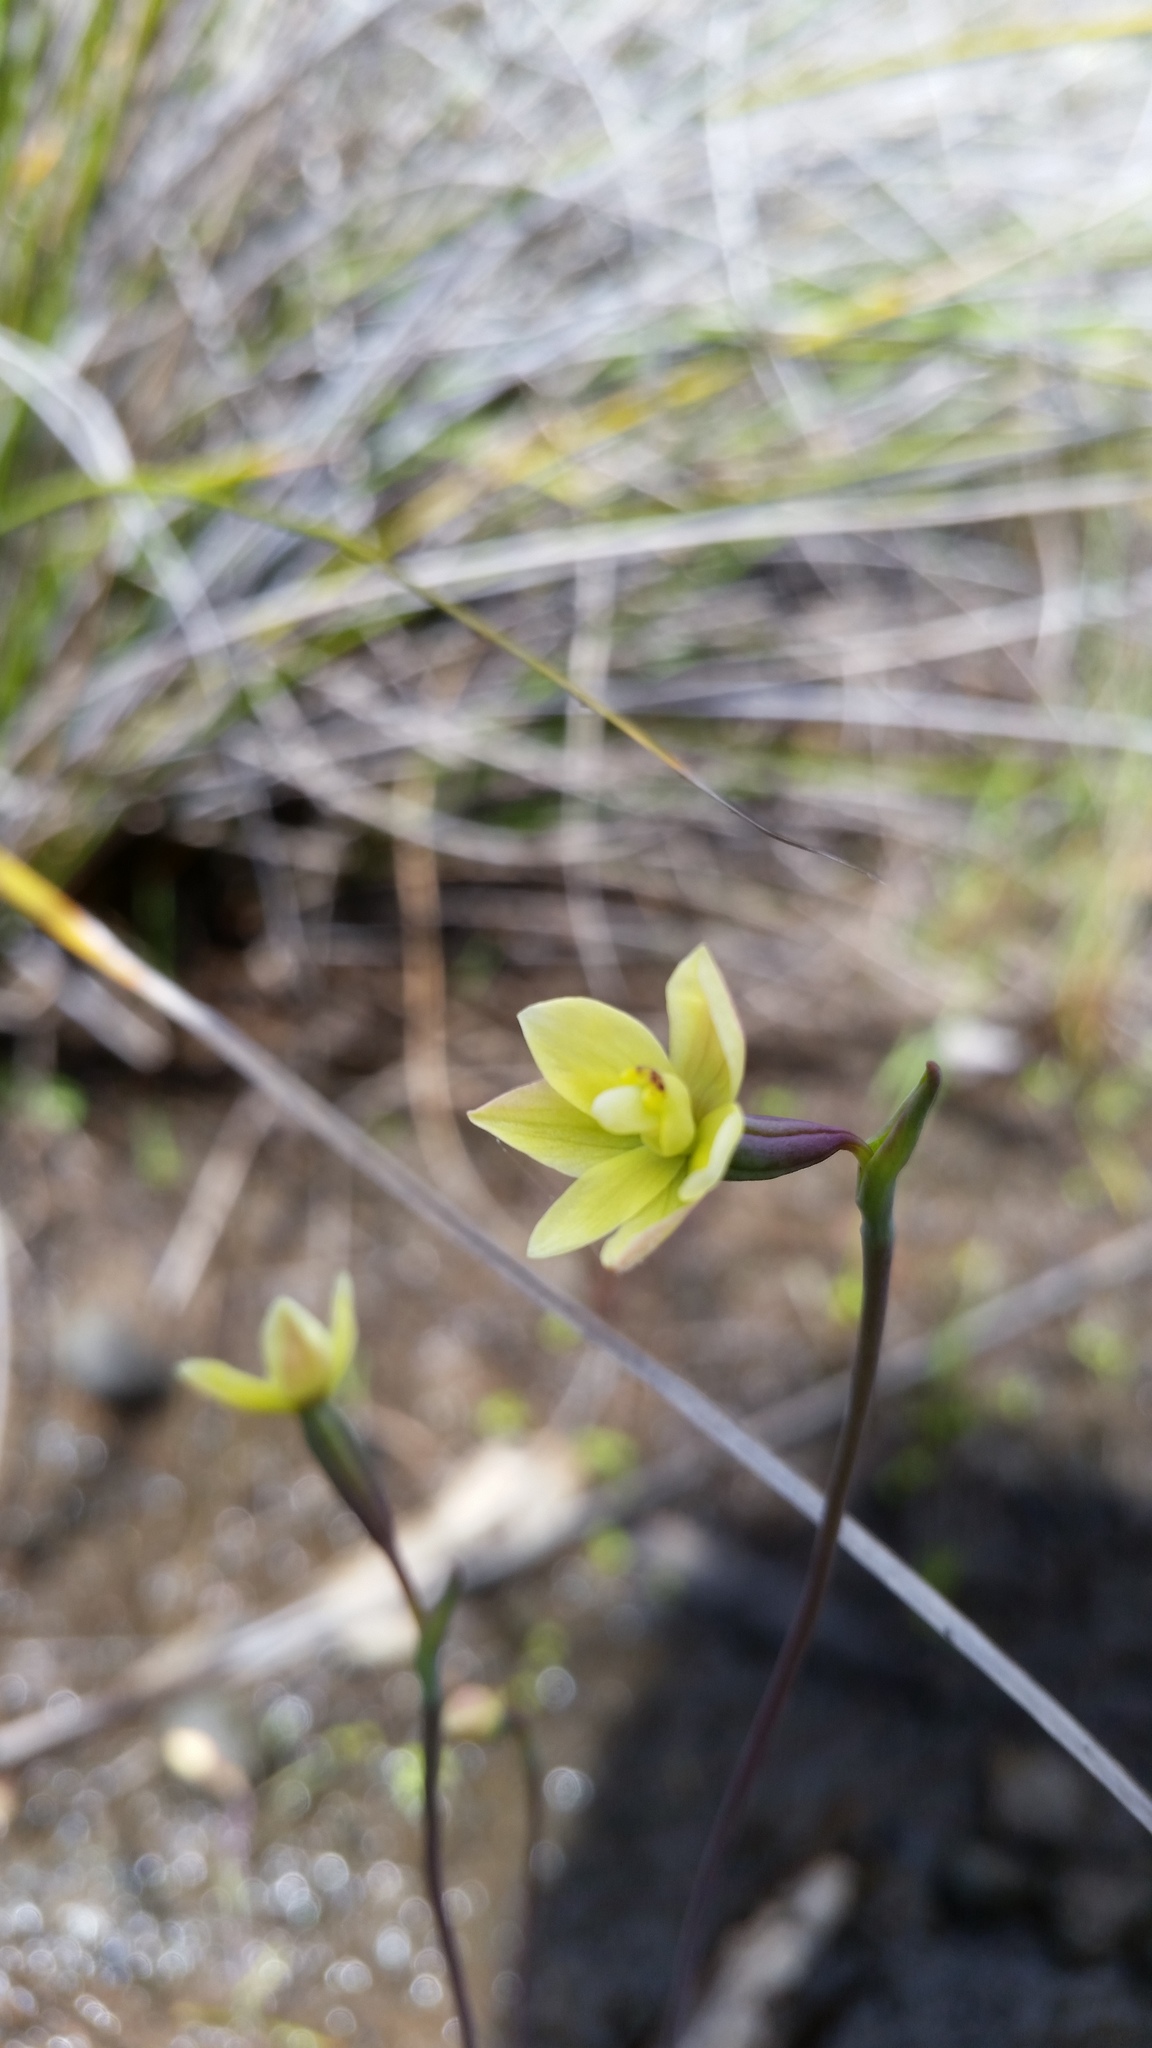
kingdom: Plantae
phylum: Tracheophyta
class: Liliopsida
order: Asparagales
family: Orchidaceae
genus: Thelymitra
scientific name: Thelymitra flexuosa
